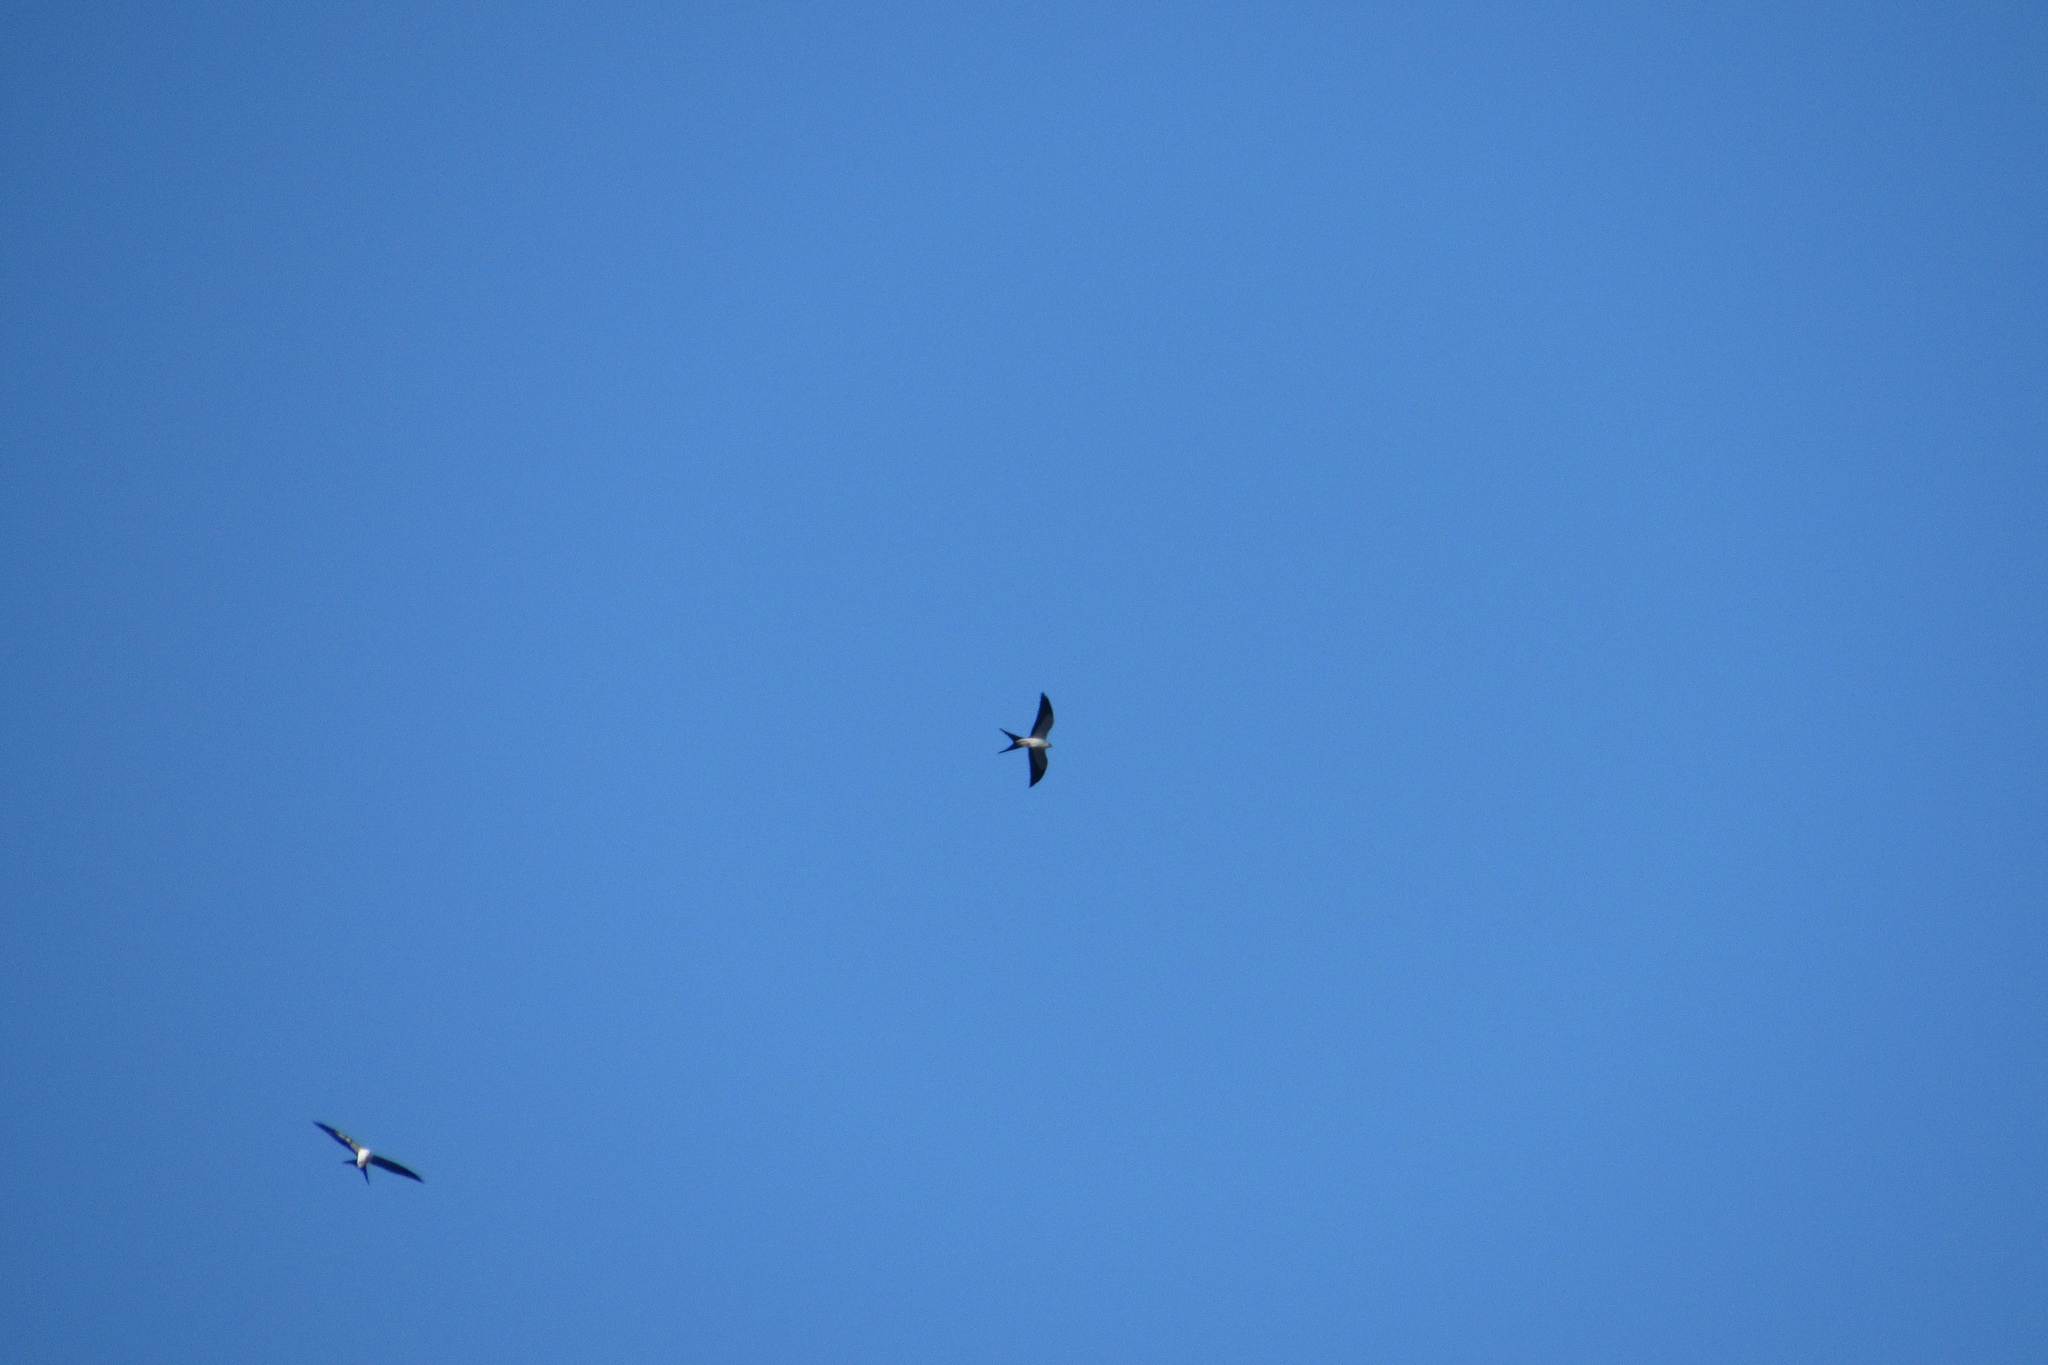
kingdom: Animalia
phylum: Chordata
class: Aves
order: Accipitriformes
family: Accipitridae
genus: Elanoides
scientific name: Elanoides forficatus
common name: Swallow-tailed kite
